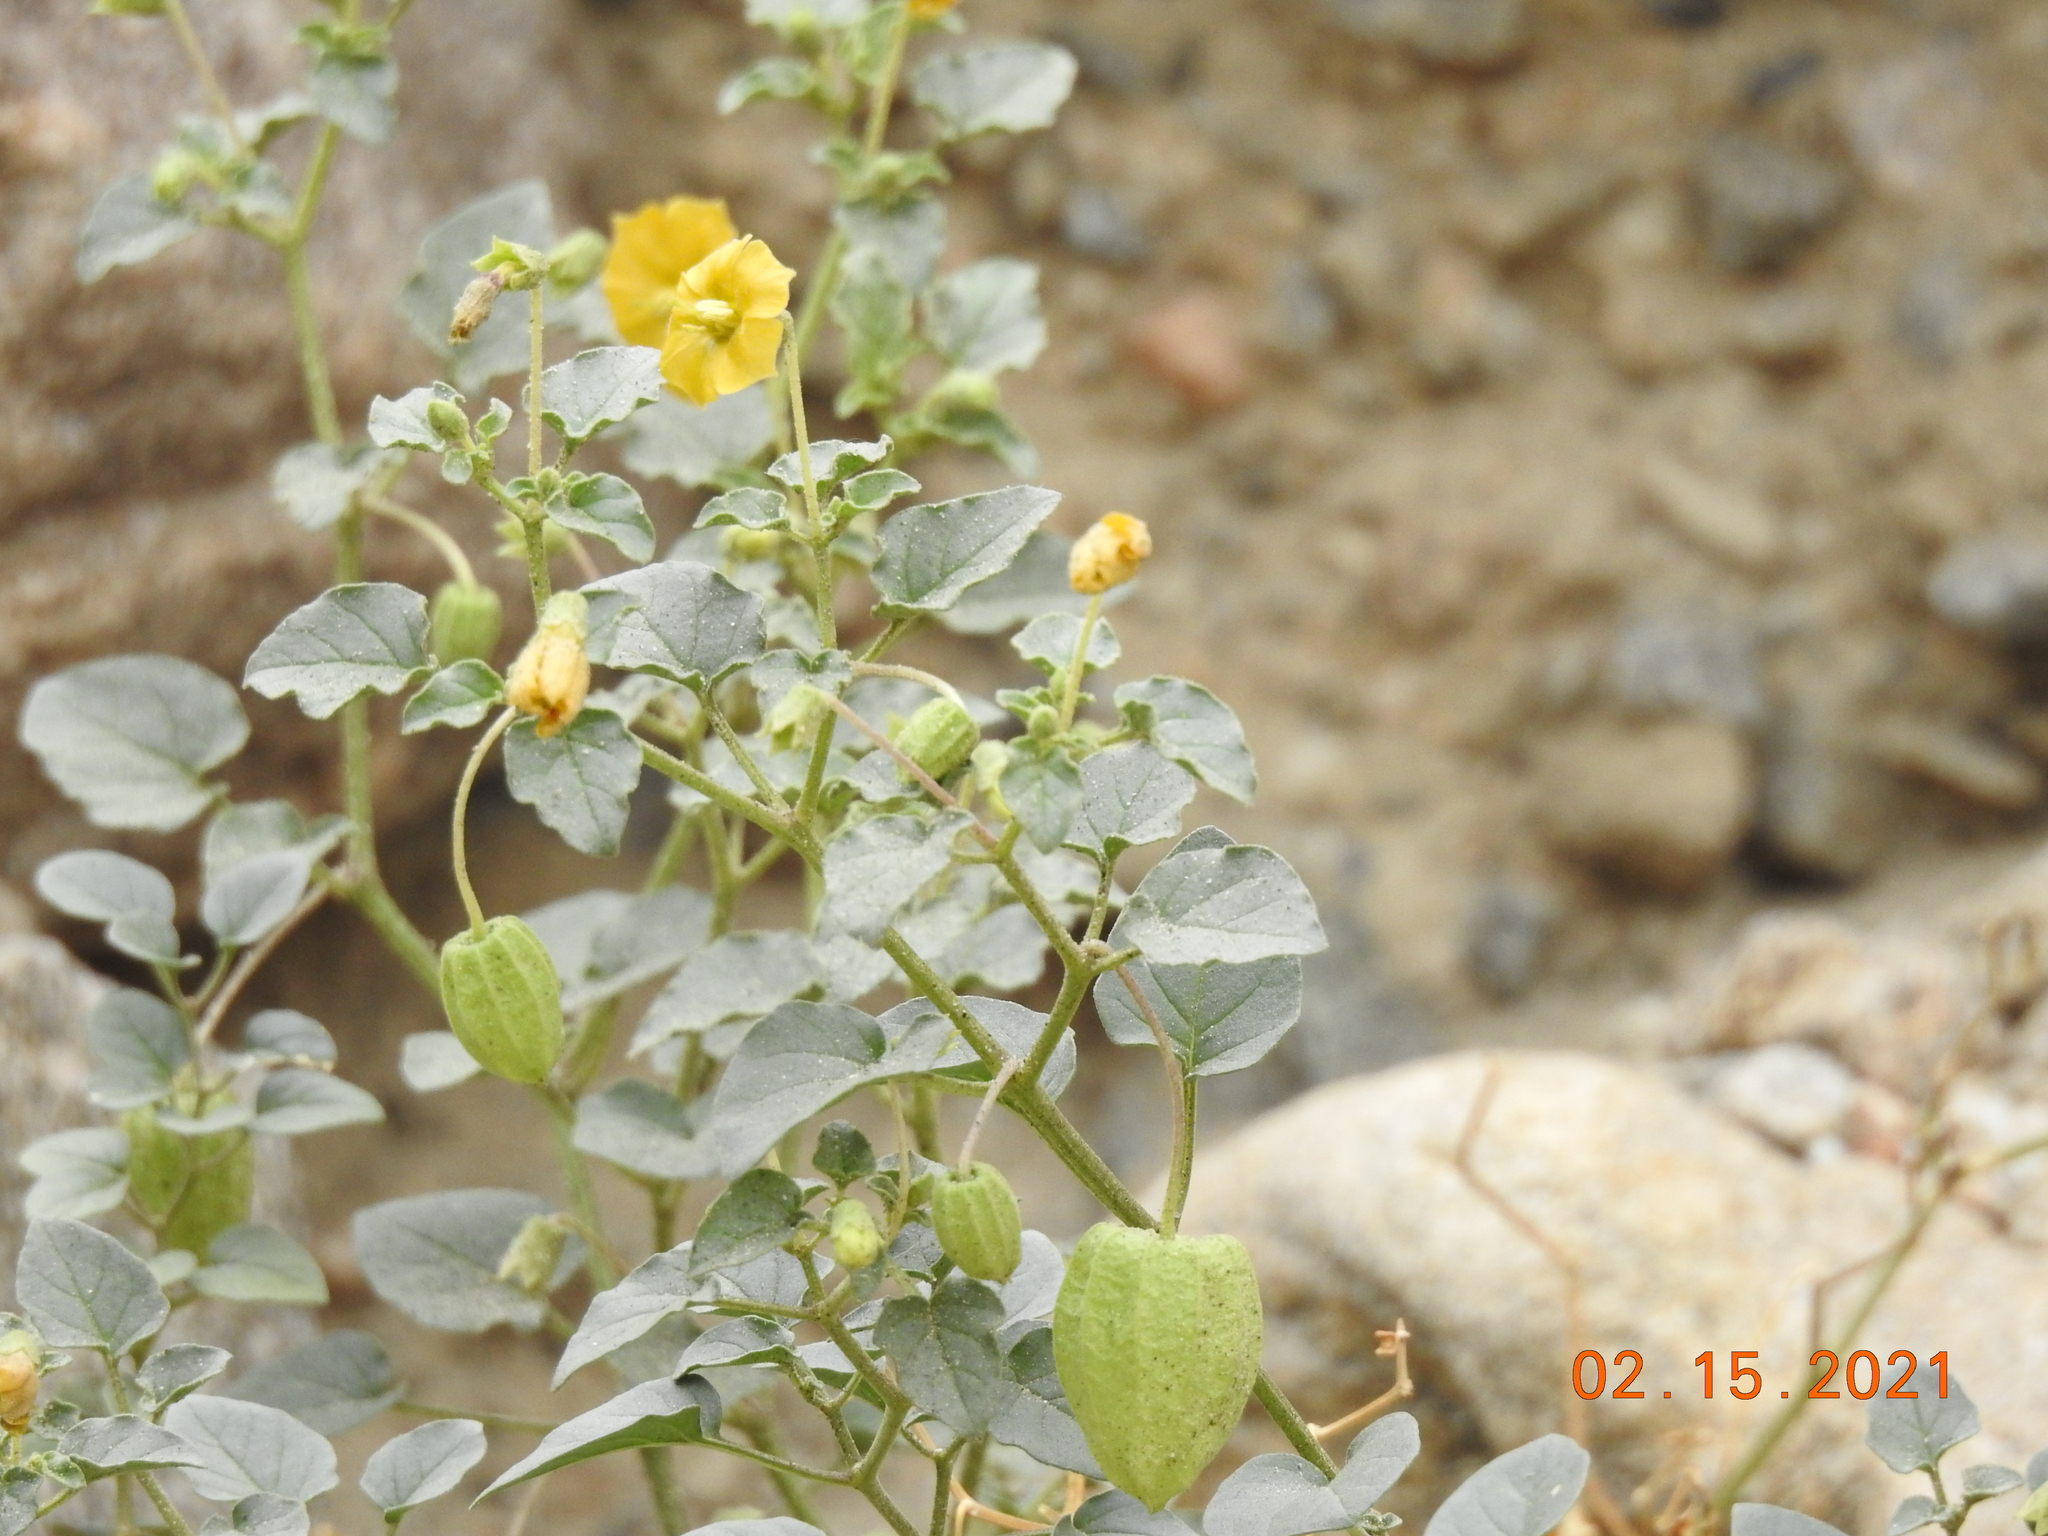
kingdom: Plantae
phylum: Tracheophyta
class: Magnoliopsida
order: Solanales
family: Solanaceae
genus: Physalis
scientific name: Physalis crassifolia
